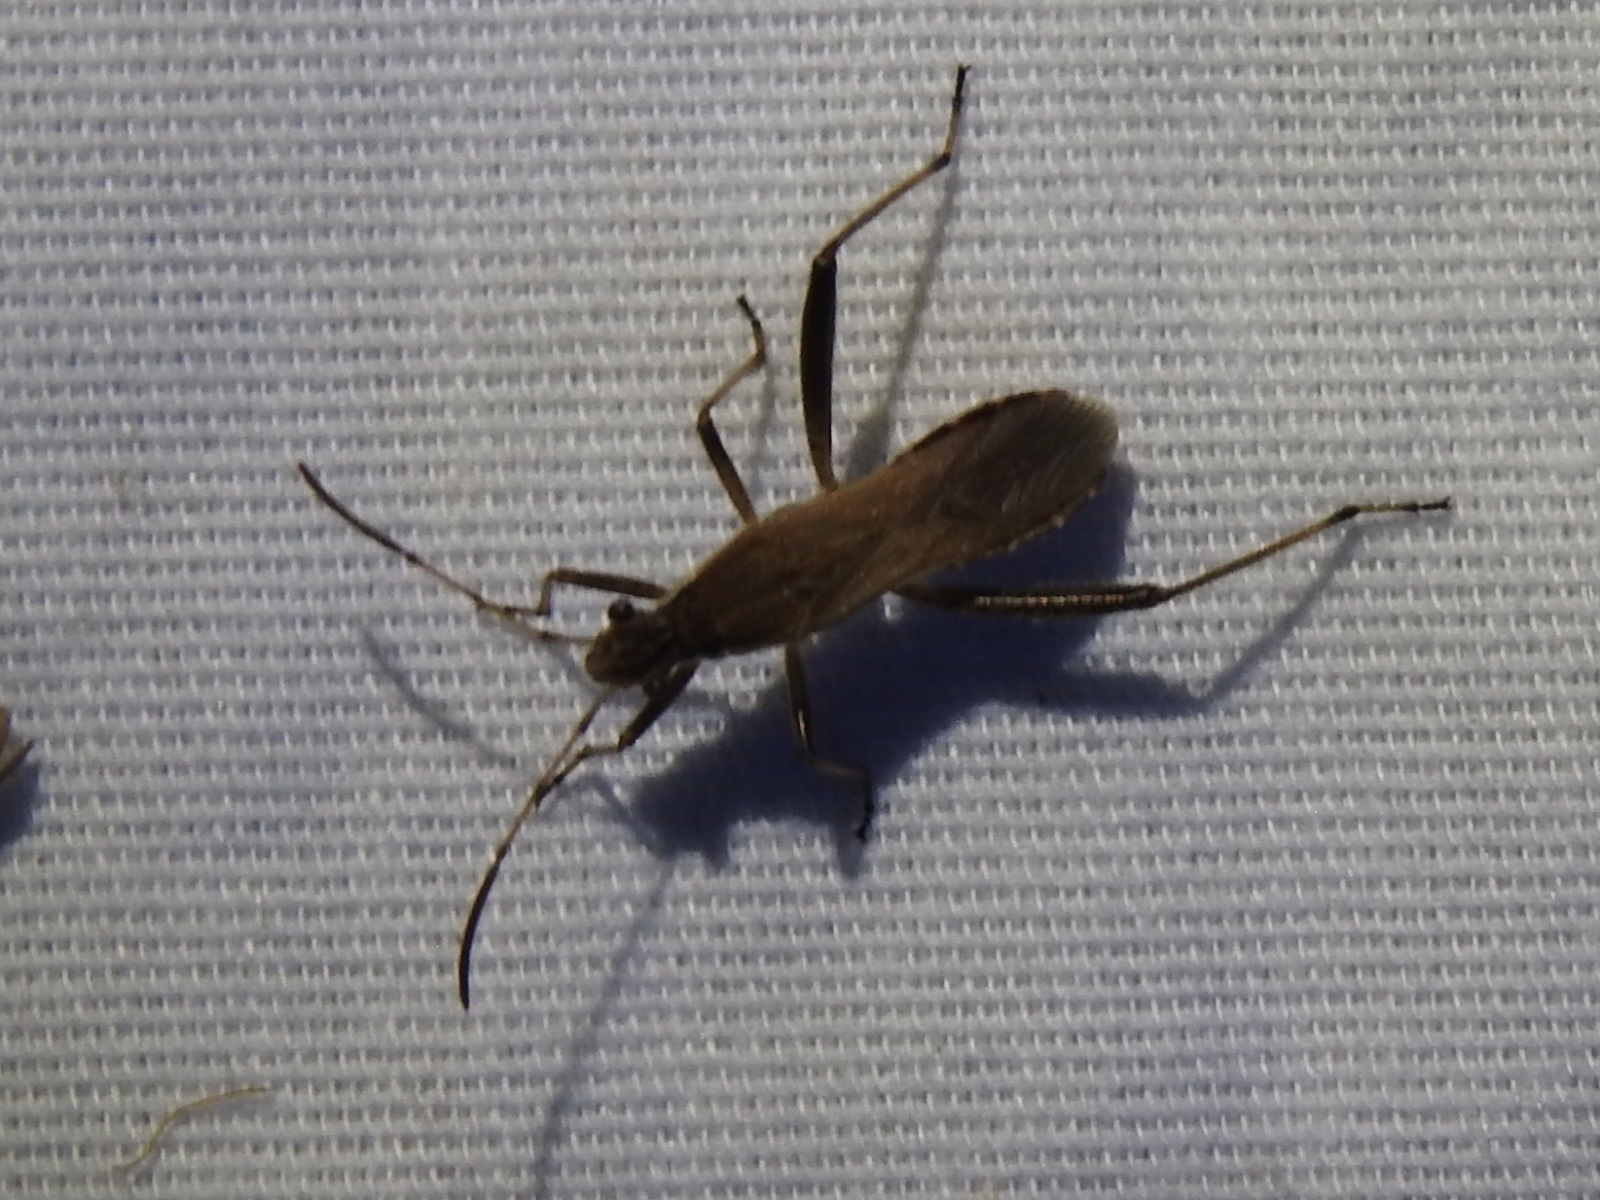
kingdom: Animalia
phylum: Arthropoda
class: Insecta
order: Hemiptera
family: Alydidae
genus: Alydus
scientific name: Alydus pilosulus
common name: Broad-headed bug
